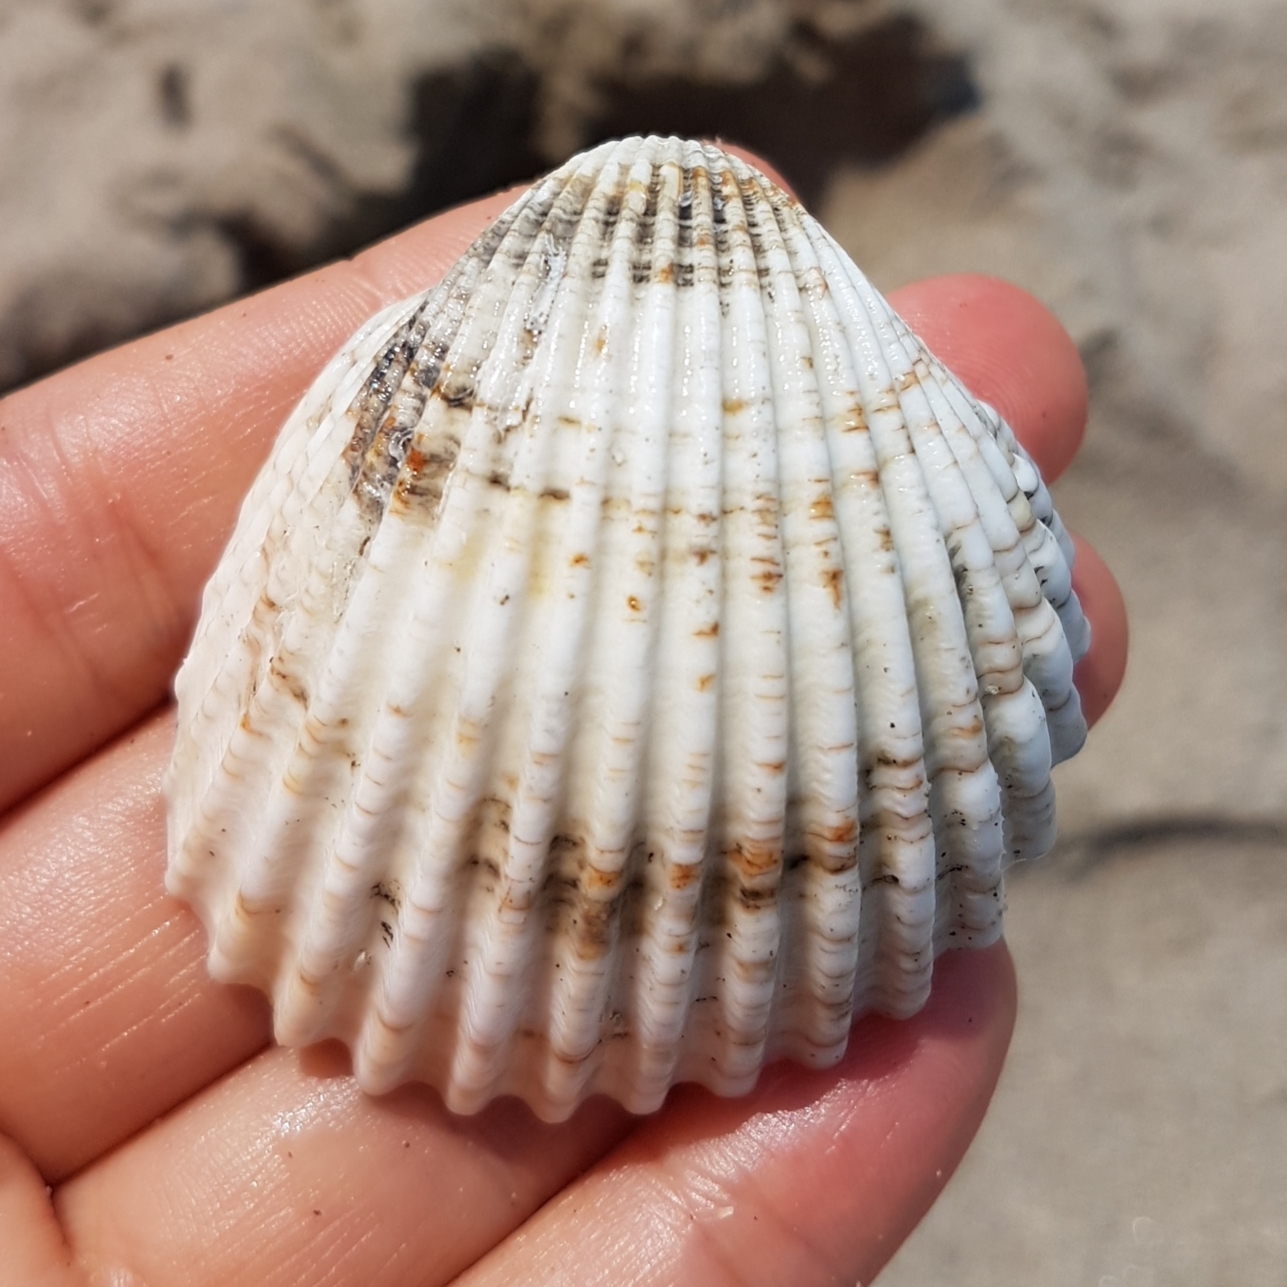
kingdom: Animalia
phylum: Mollusca
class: Bivalvia
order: Cardiida
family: Cardiidae
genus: Acanthocardia
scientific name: Acanthocardia tuberculata
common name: Rough cockle
